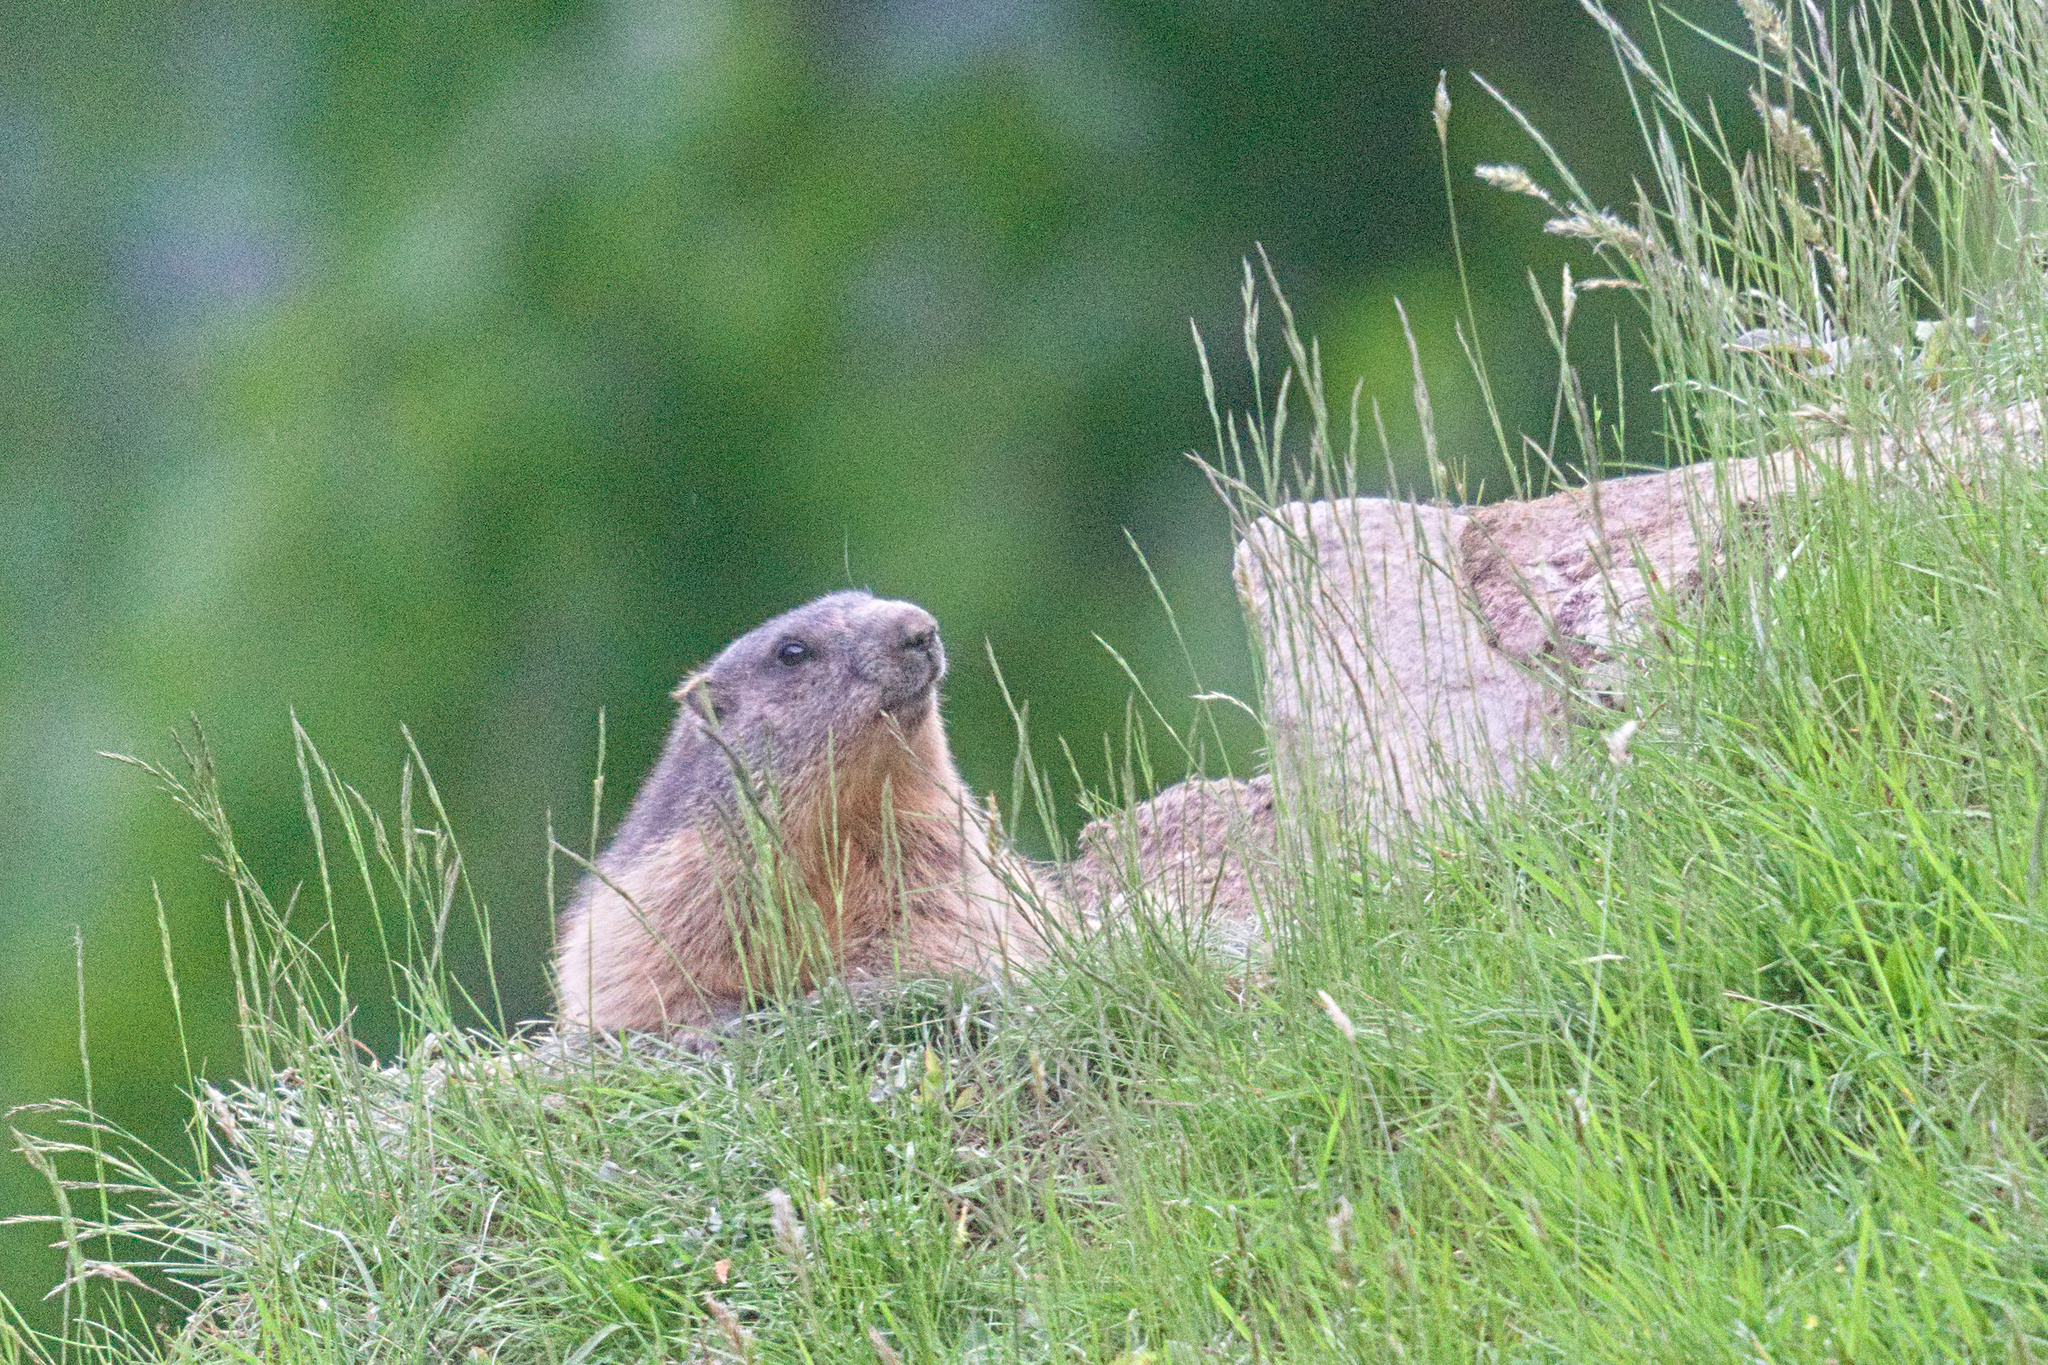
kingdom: Animalia
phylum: Chordata
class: Mammalia
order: Rodentia
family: Sciuridae
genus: Marmota
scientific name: Marmota marmota
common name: Alpine marmot
